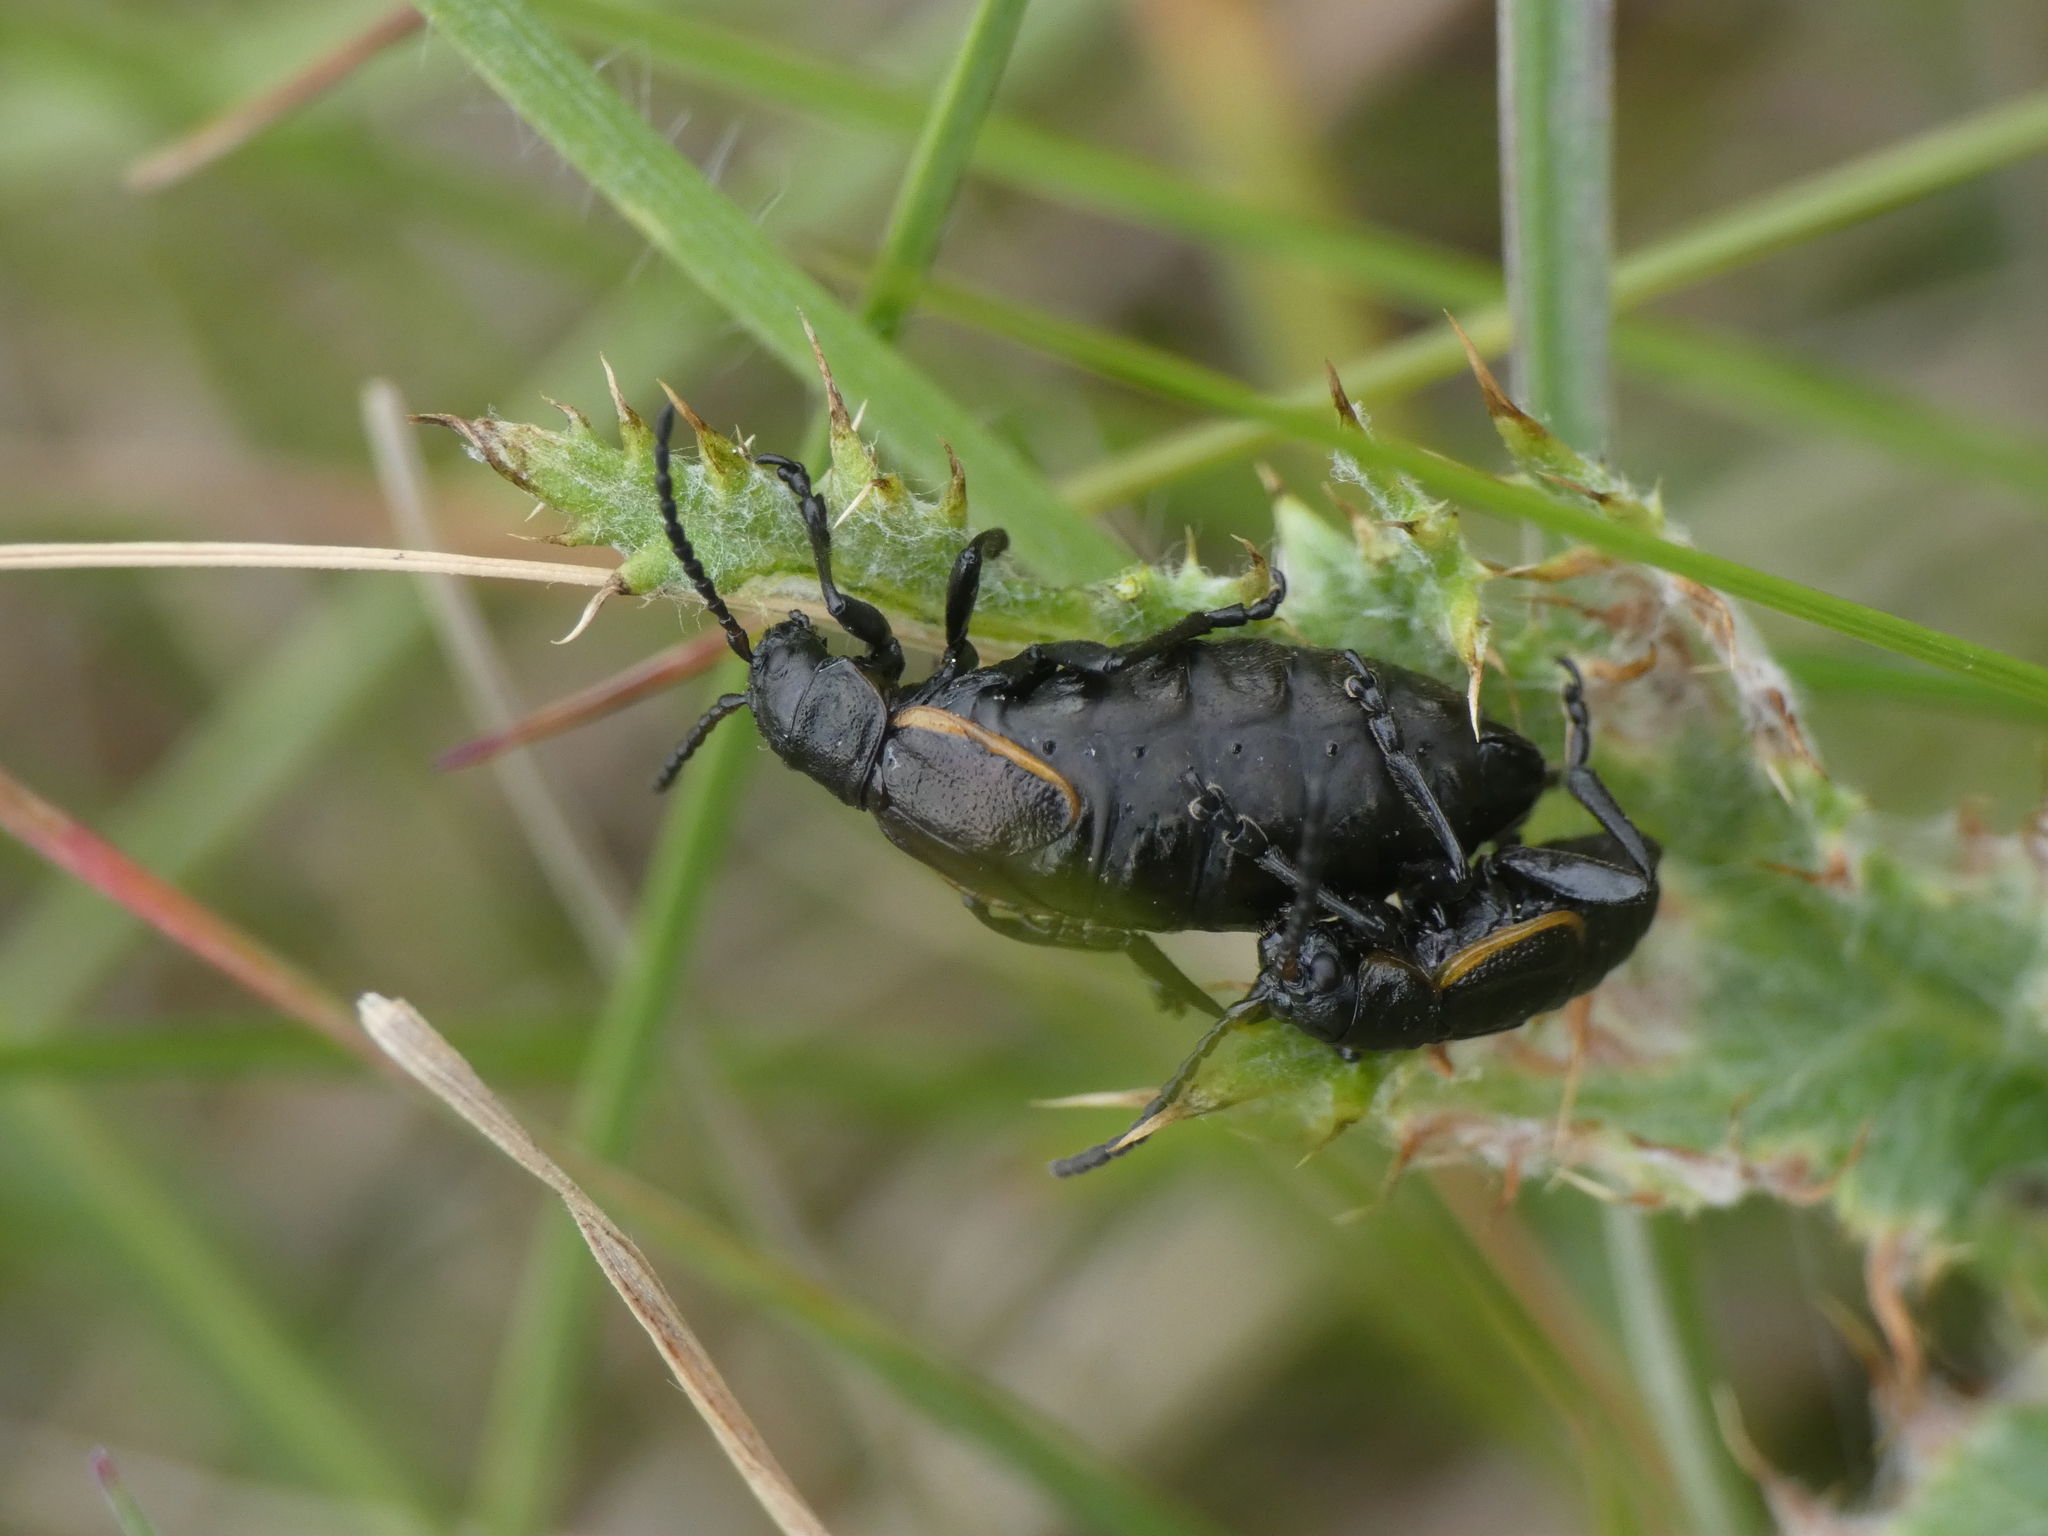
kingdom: Animalia
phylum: Arthropoda
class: Insecta
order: Coleoptera
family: Chrysomelidae
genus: Arima
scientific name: Arima marginata
